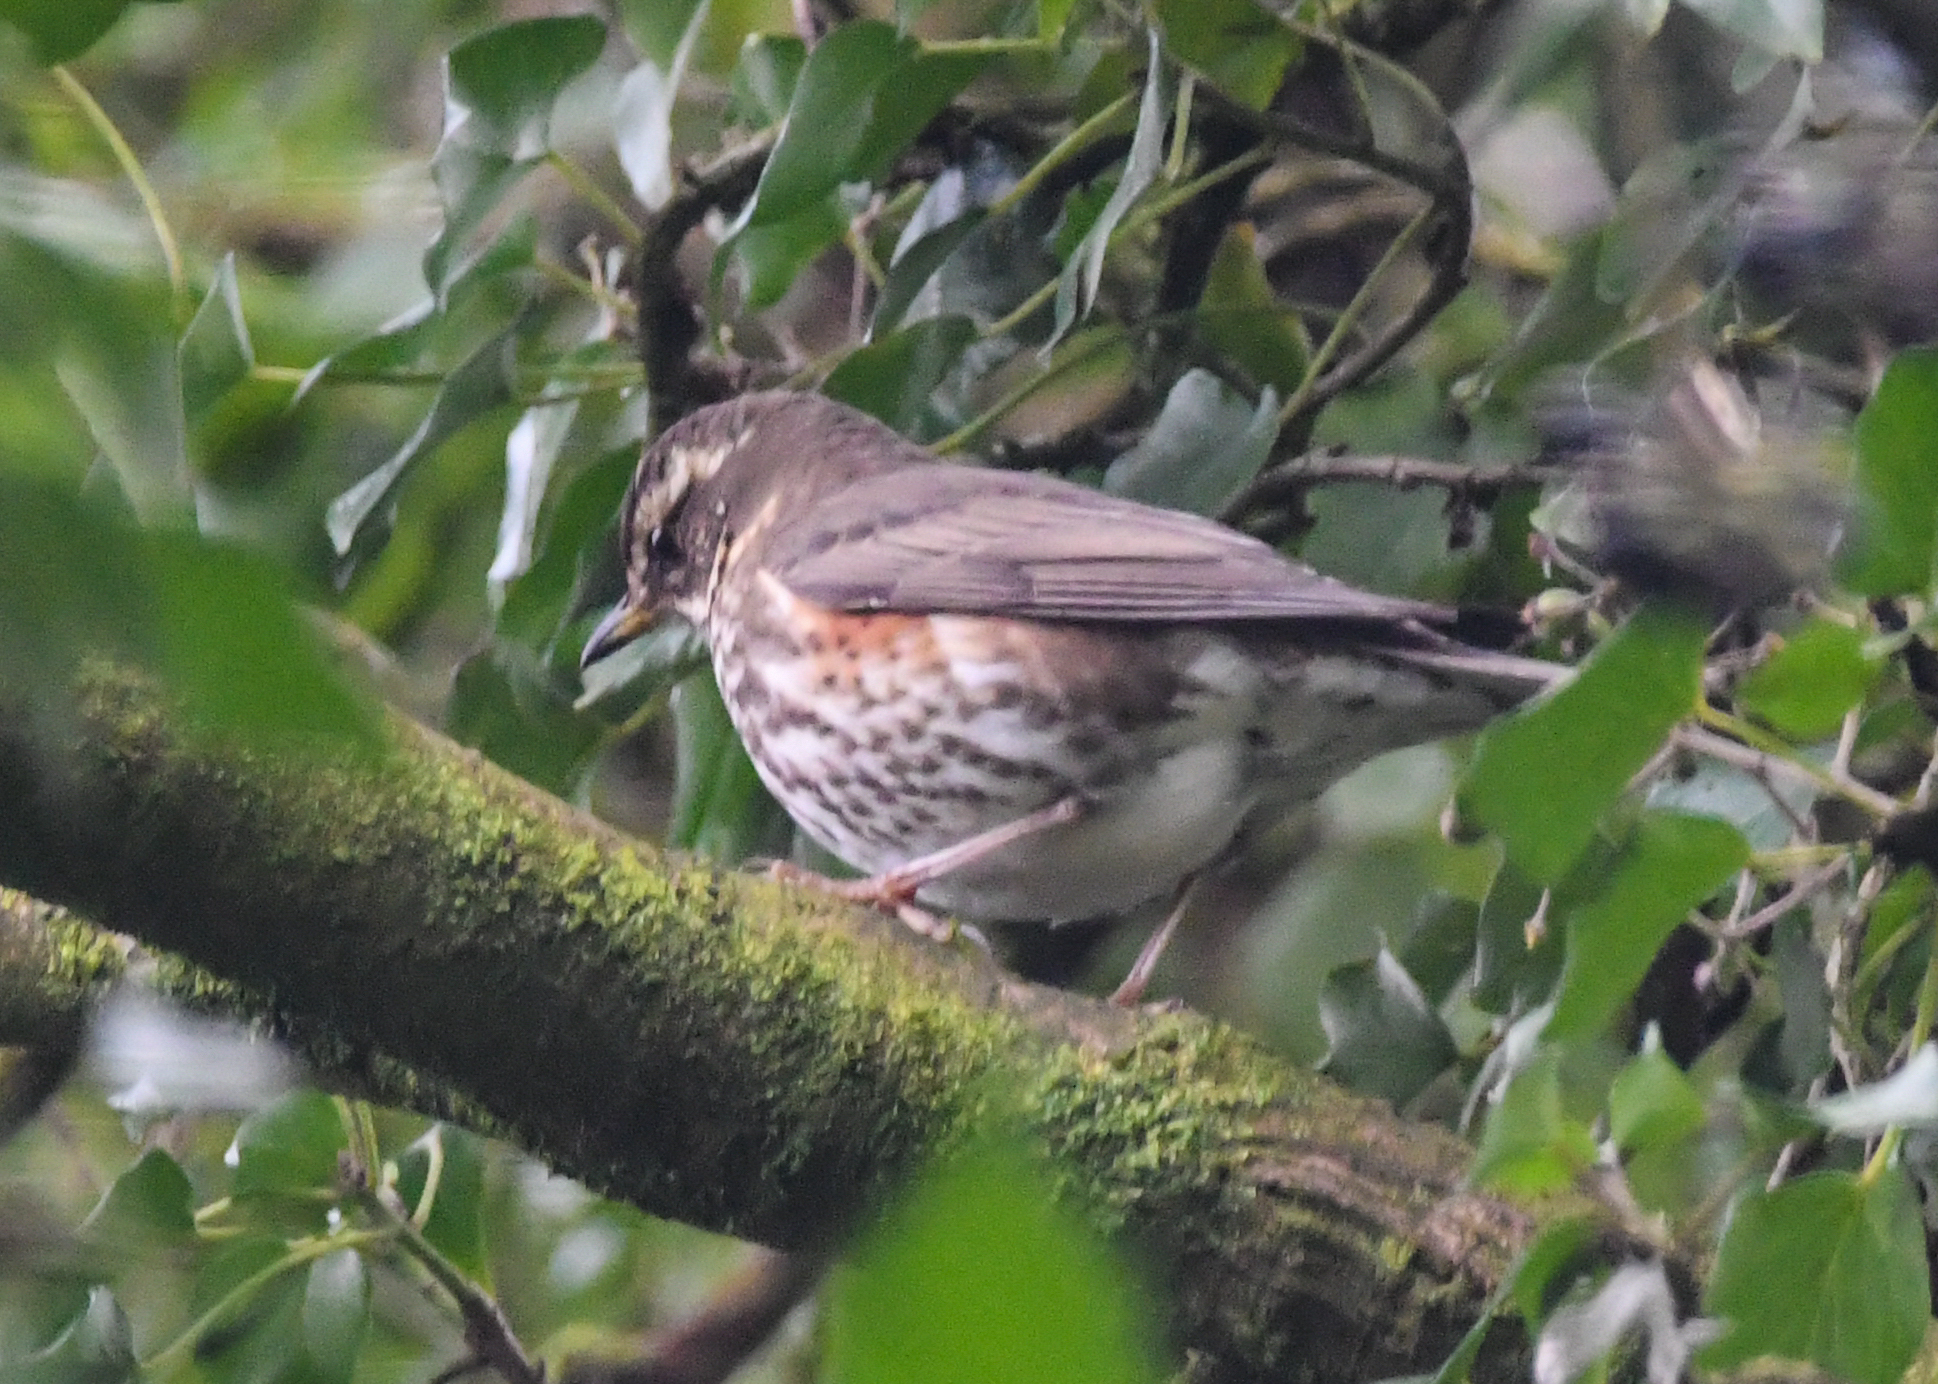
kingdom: Animalia
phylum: Chordata
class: Aves
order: Passeriformes
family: Turdidae
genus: Turdus
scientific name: Turdus iliacus
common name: Redwing
